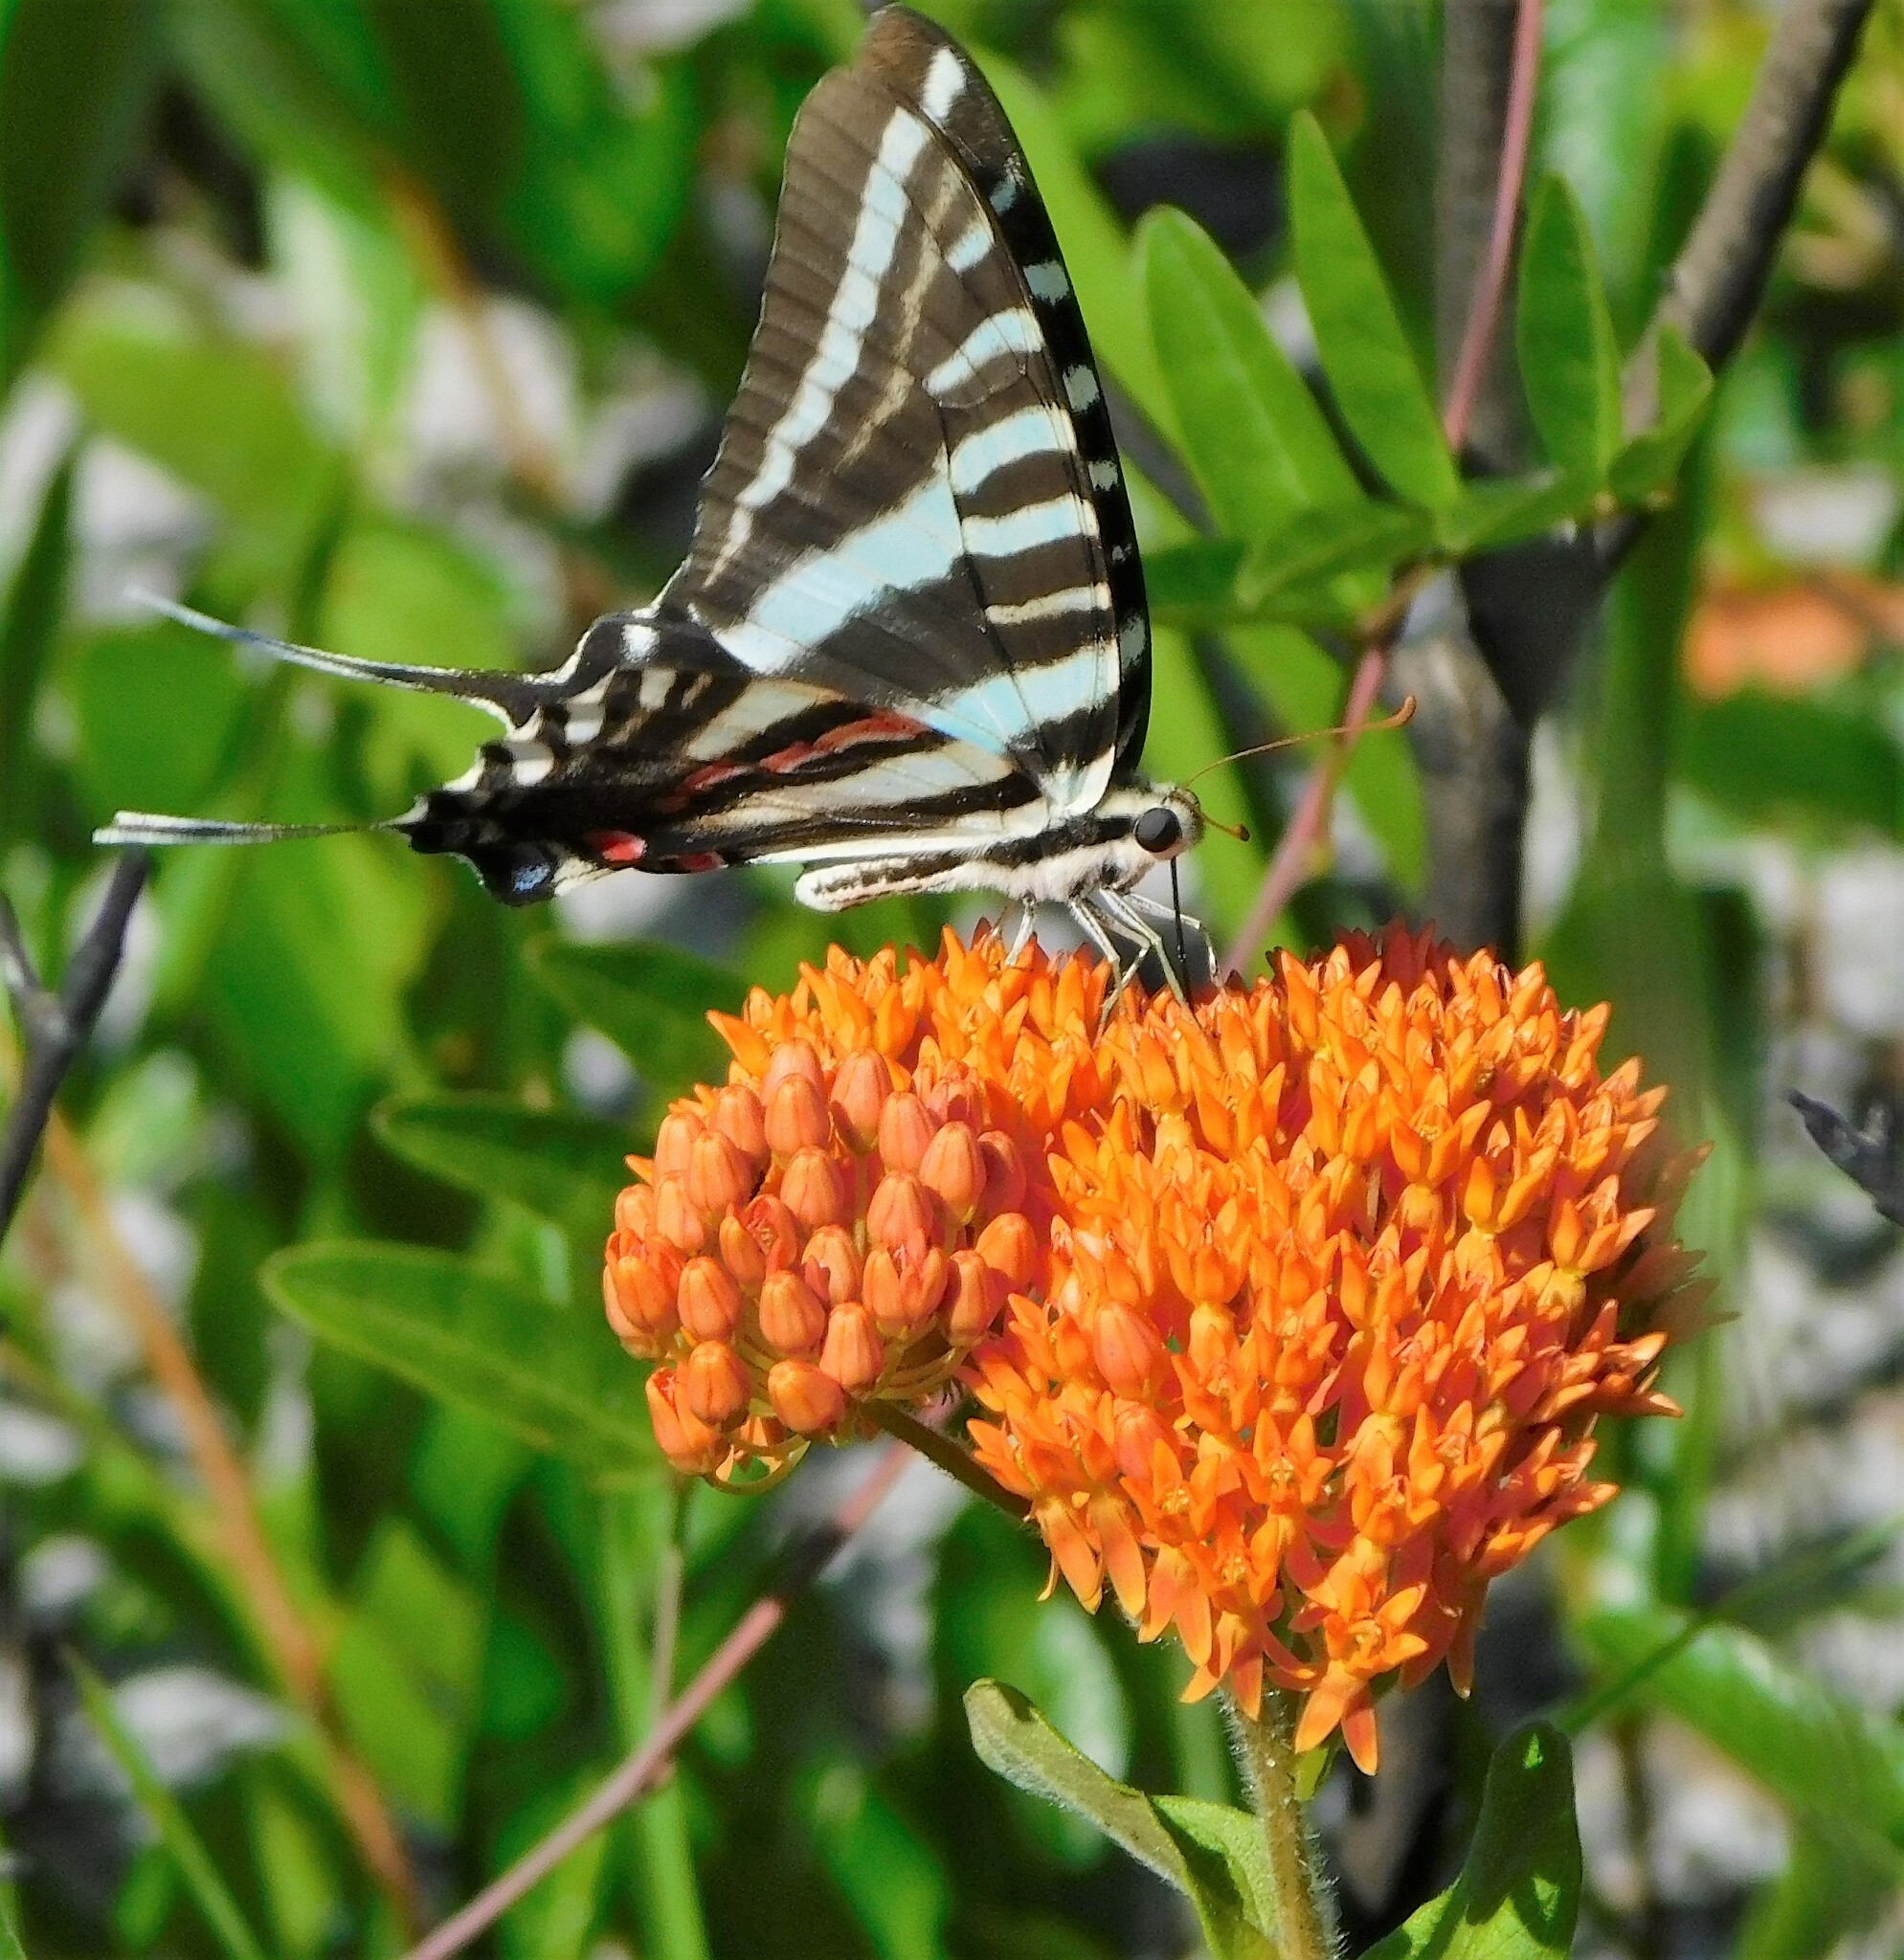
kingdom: Animalia
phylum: Arthropoda
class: Insecta
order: Lepidoptera
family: Papilionidae
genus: Protographium
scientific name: Protographium marcellus
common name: Zebra swallowtail
